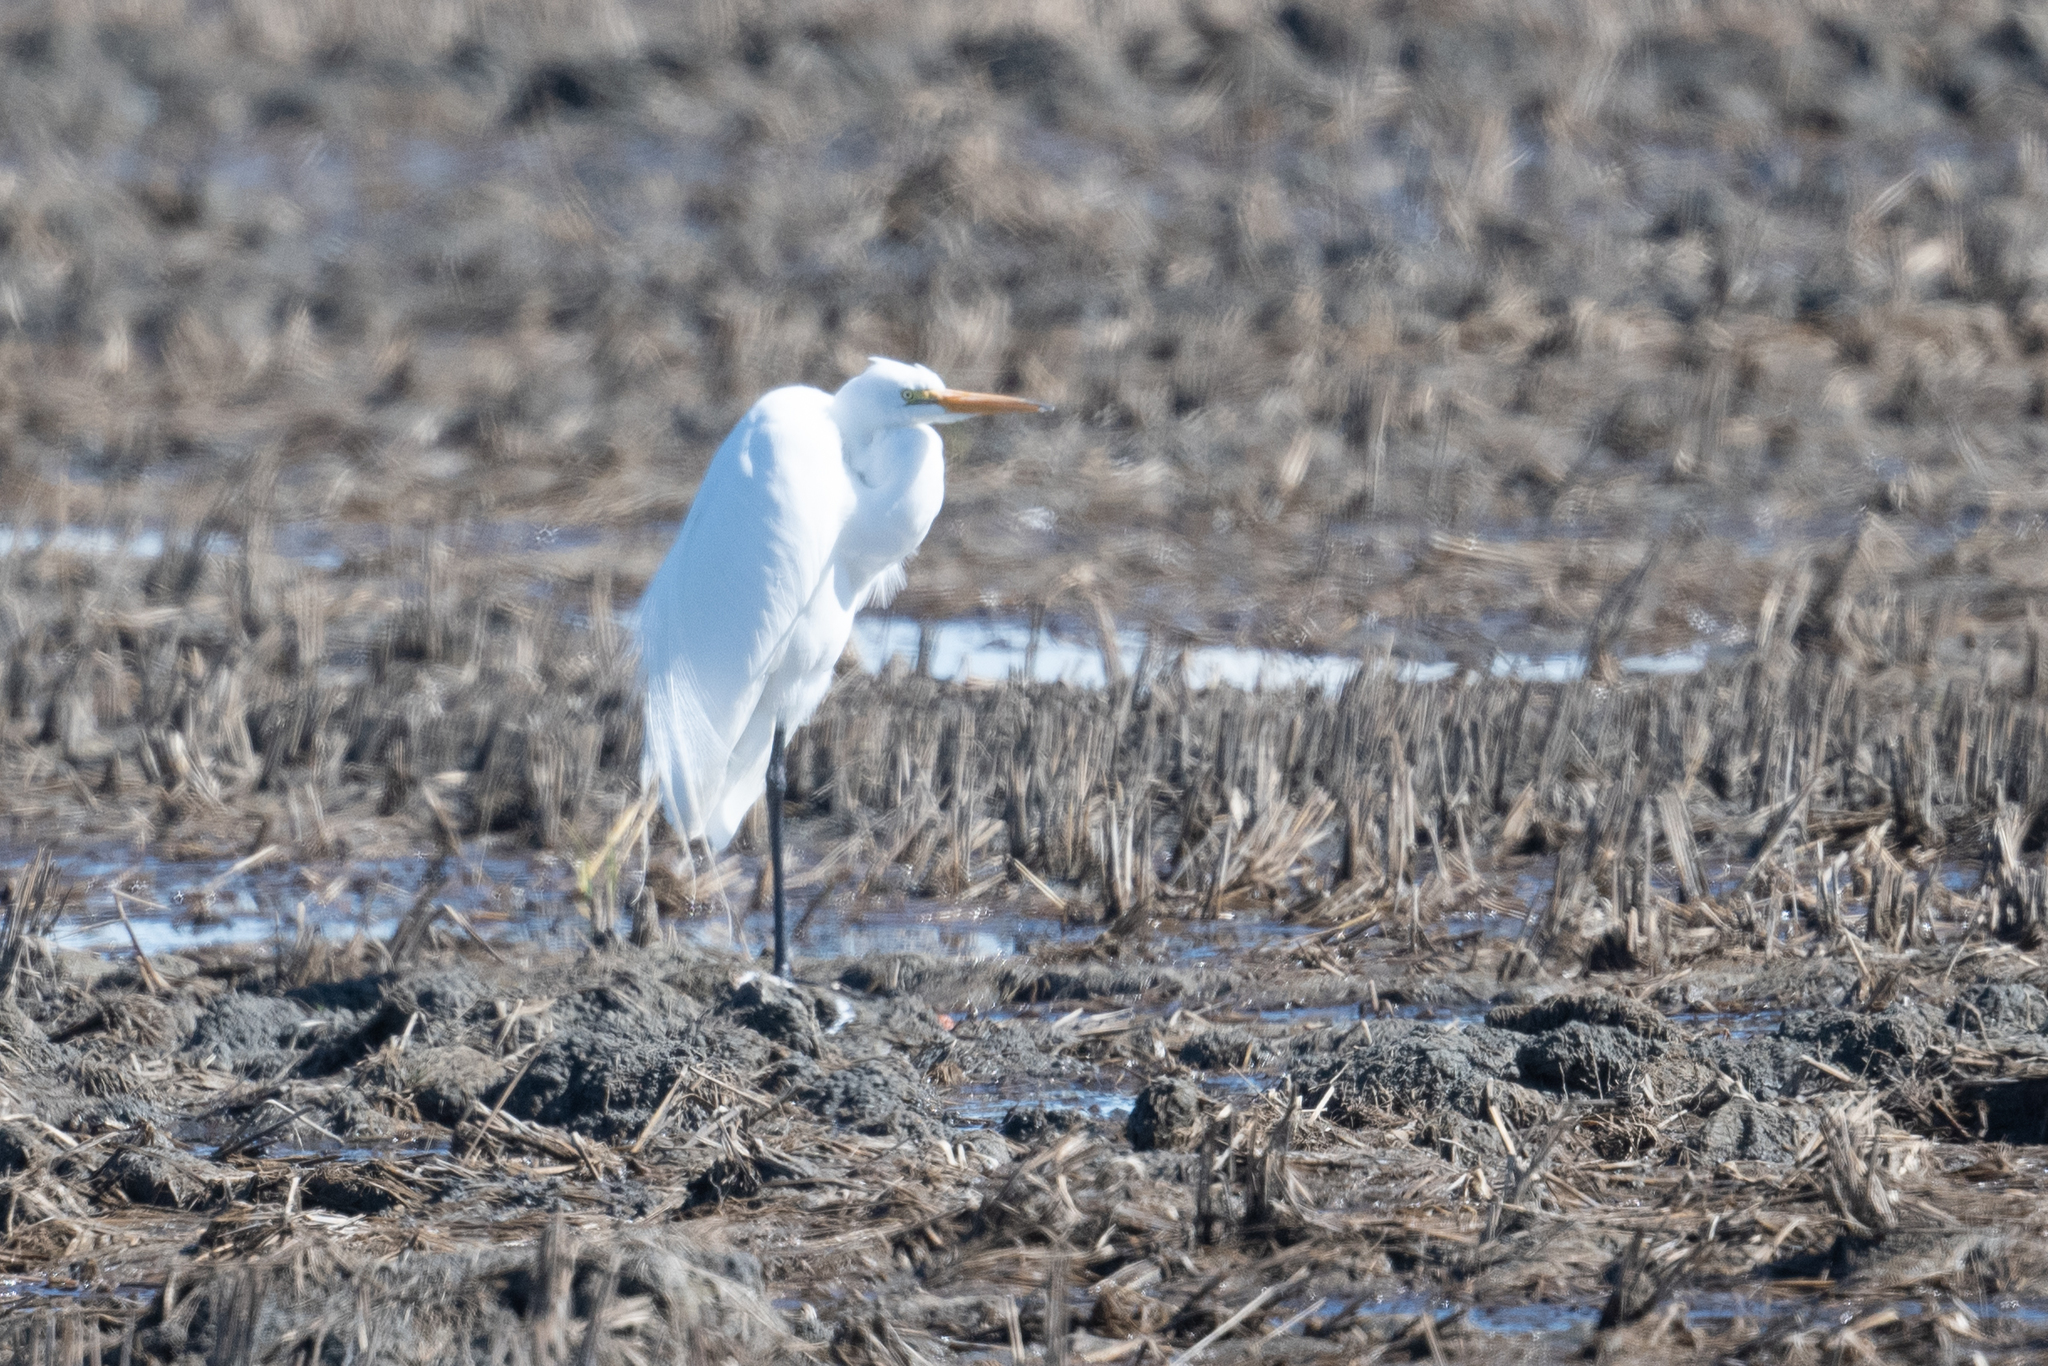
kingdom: Animalia
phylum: Chordata
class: Aves
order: Pelecaniformes
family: Ardeidae
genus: Ardea
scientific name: Ardea alba
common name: Great egret
